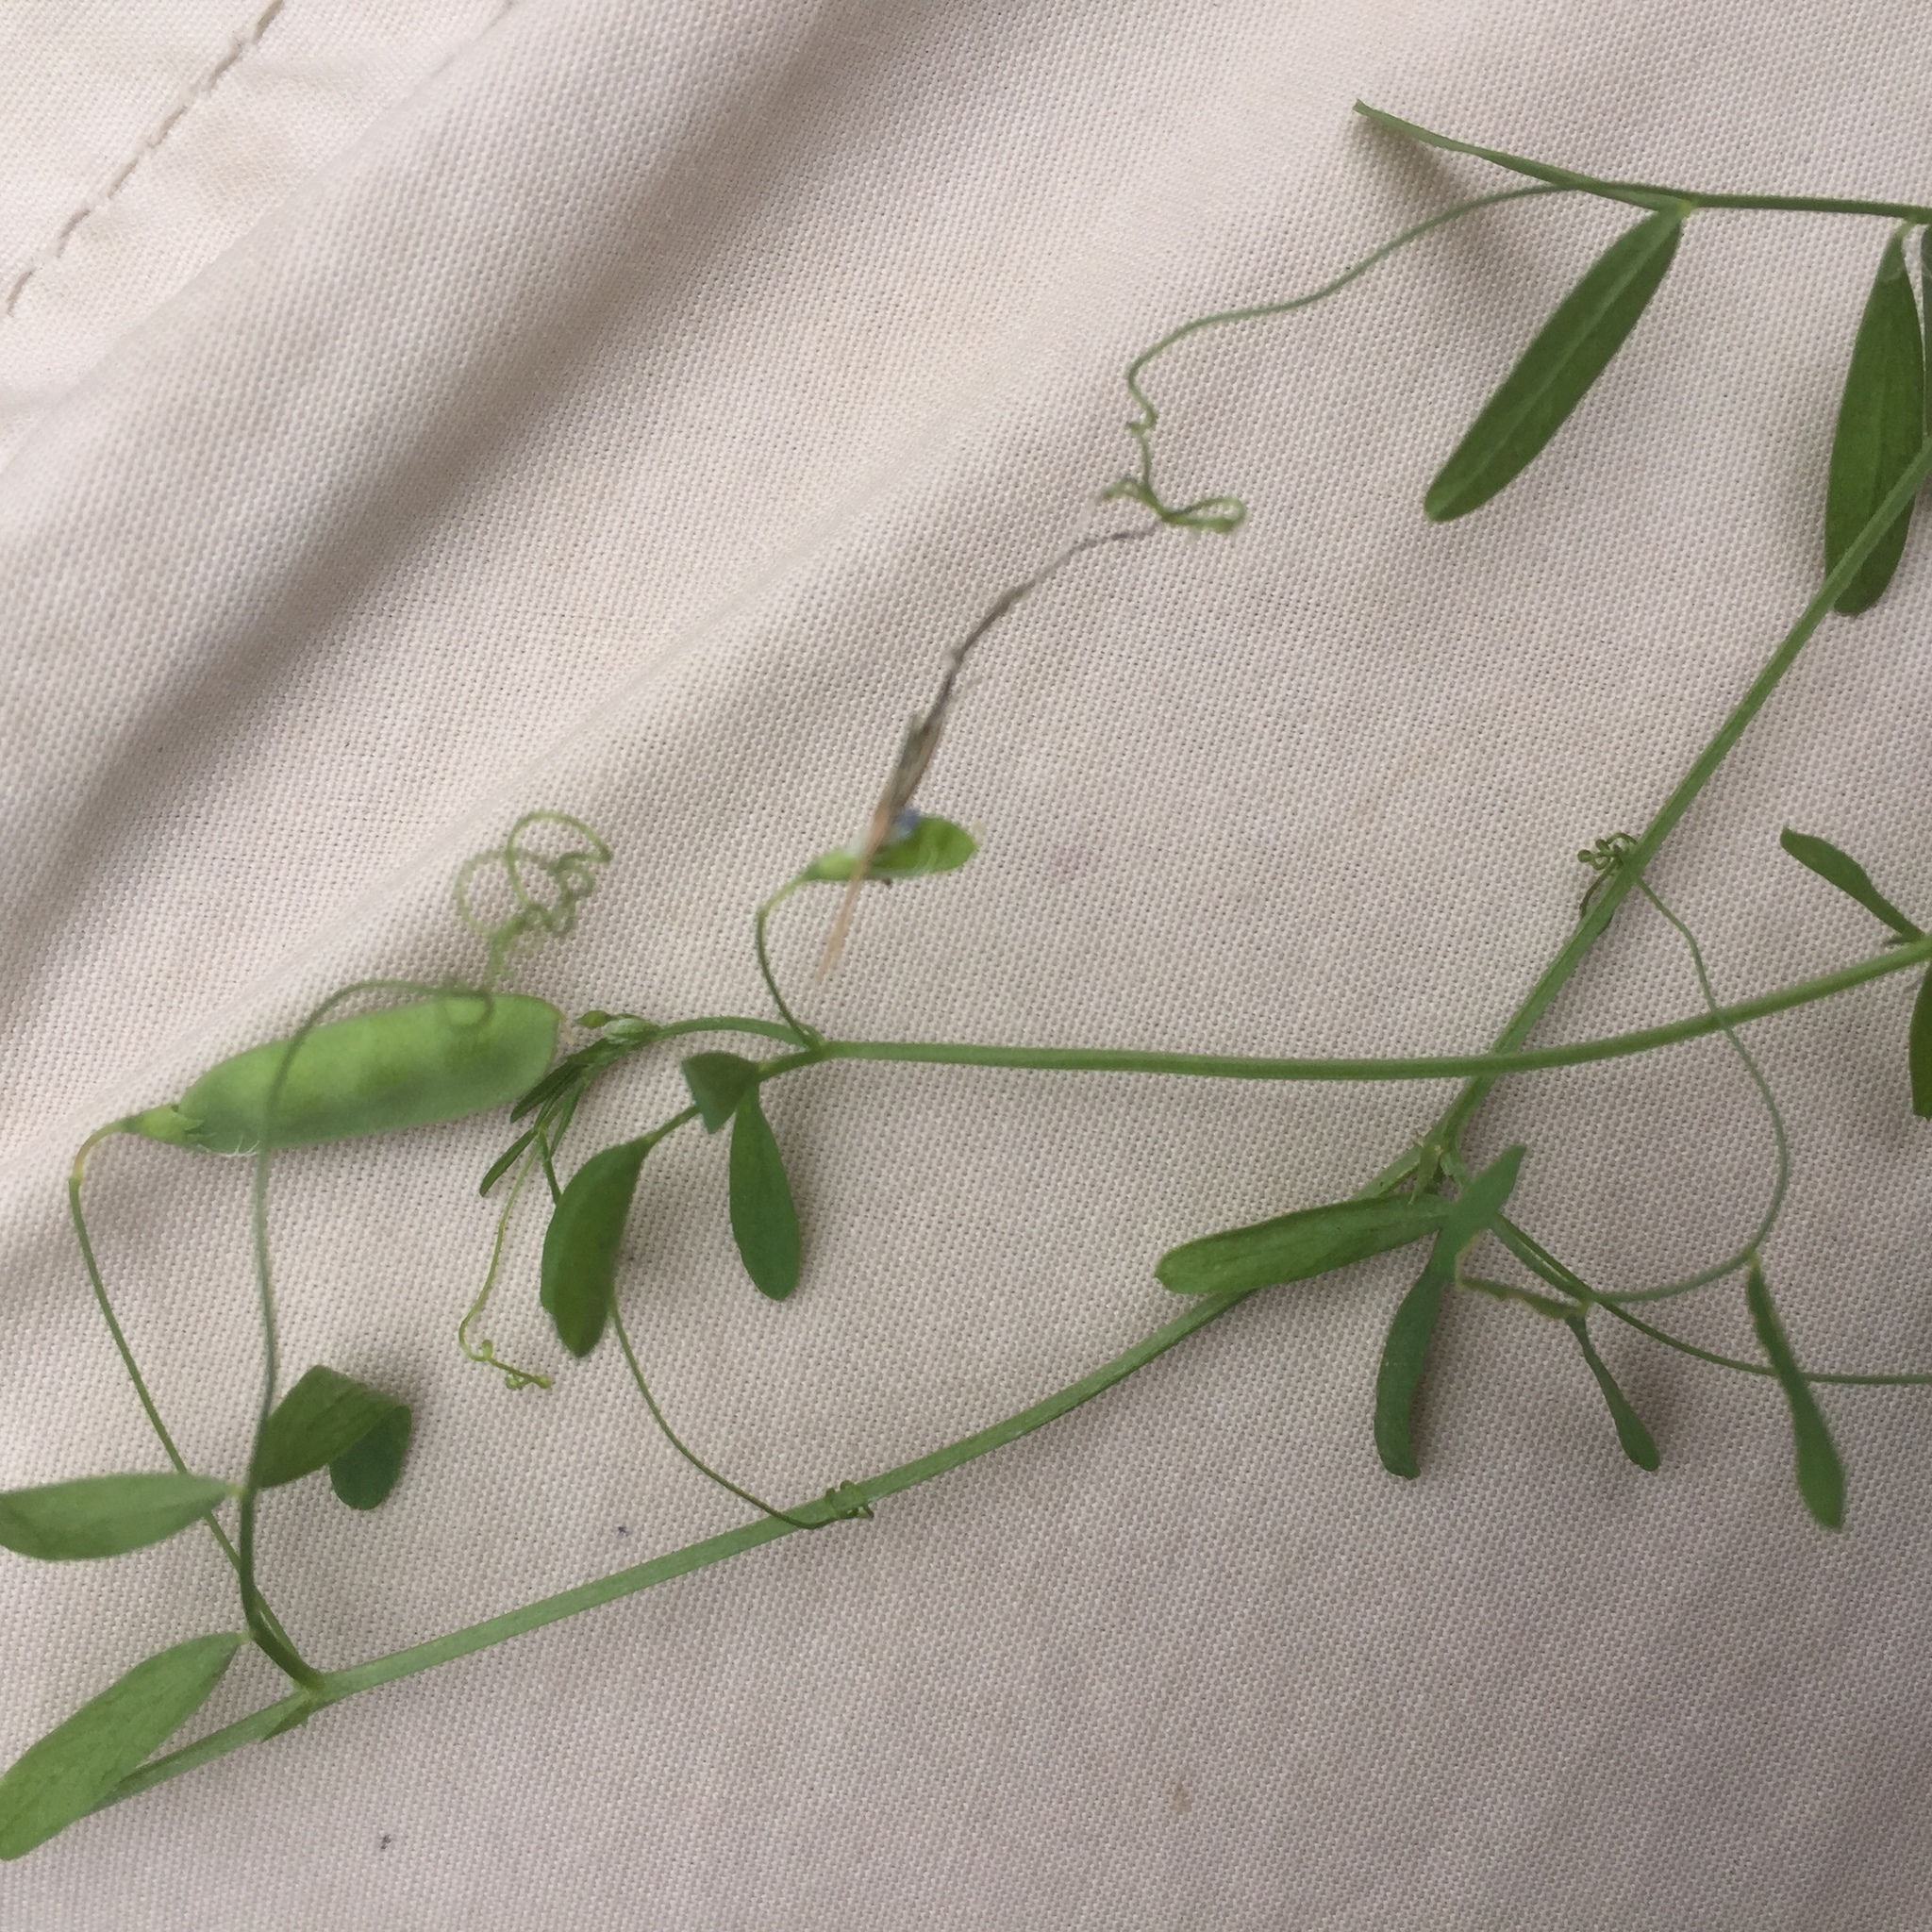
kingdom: Plantae
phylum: Tracheophyta
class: Magnoliopsida
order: Fabales
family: Fabaceae
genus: Vicia
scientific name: Vicia tetrasperma
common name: Smooth tare
